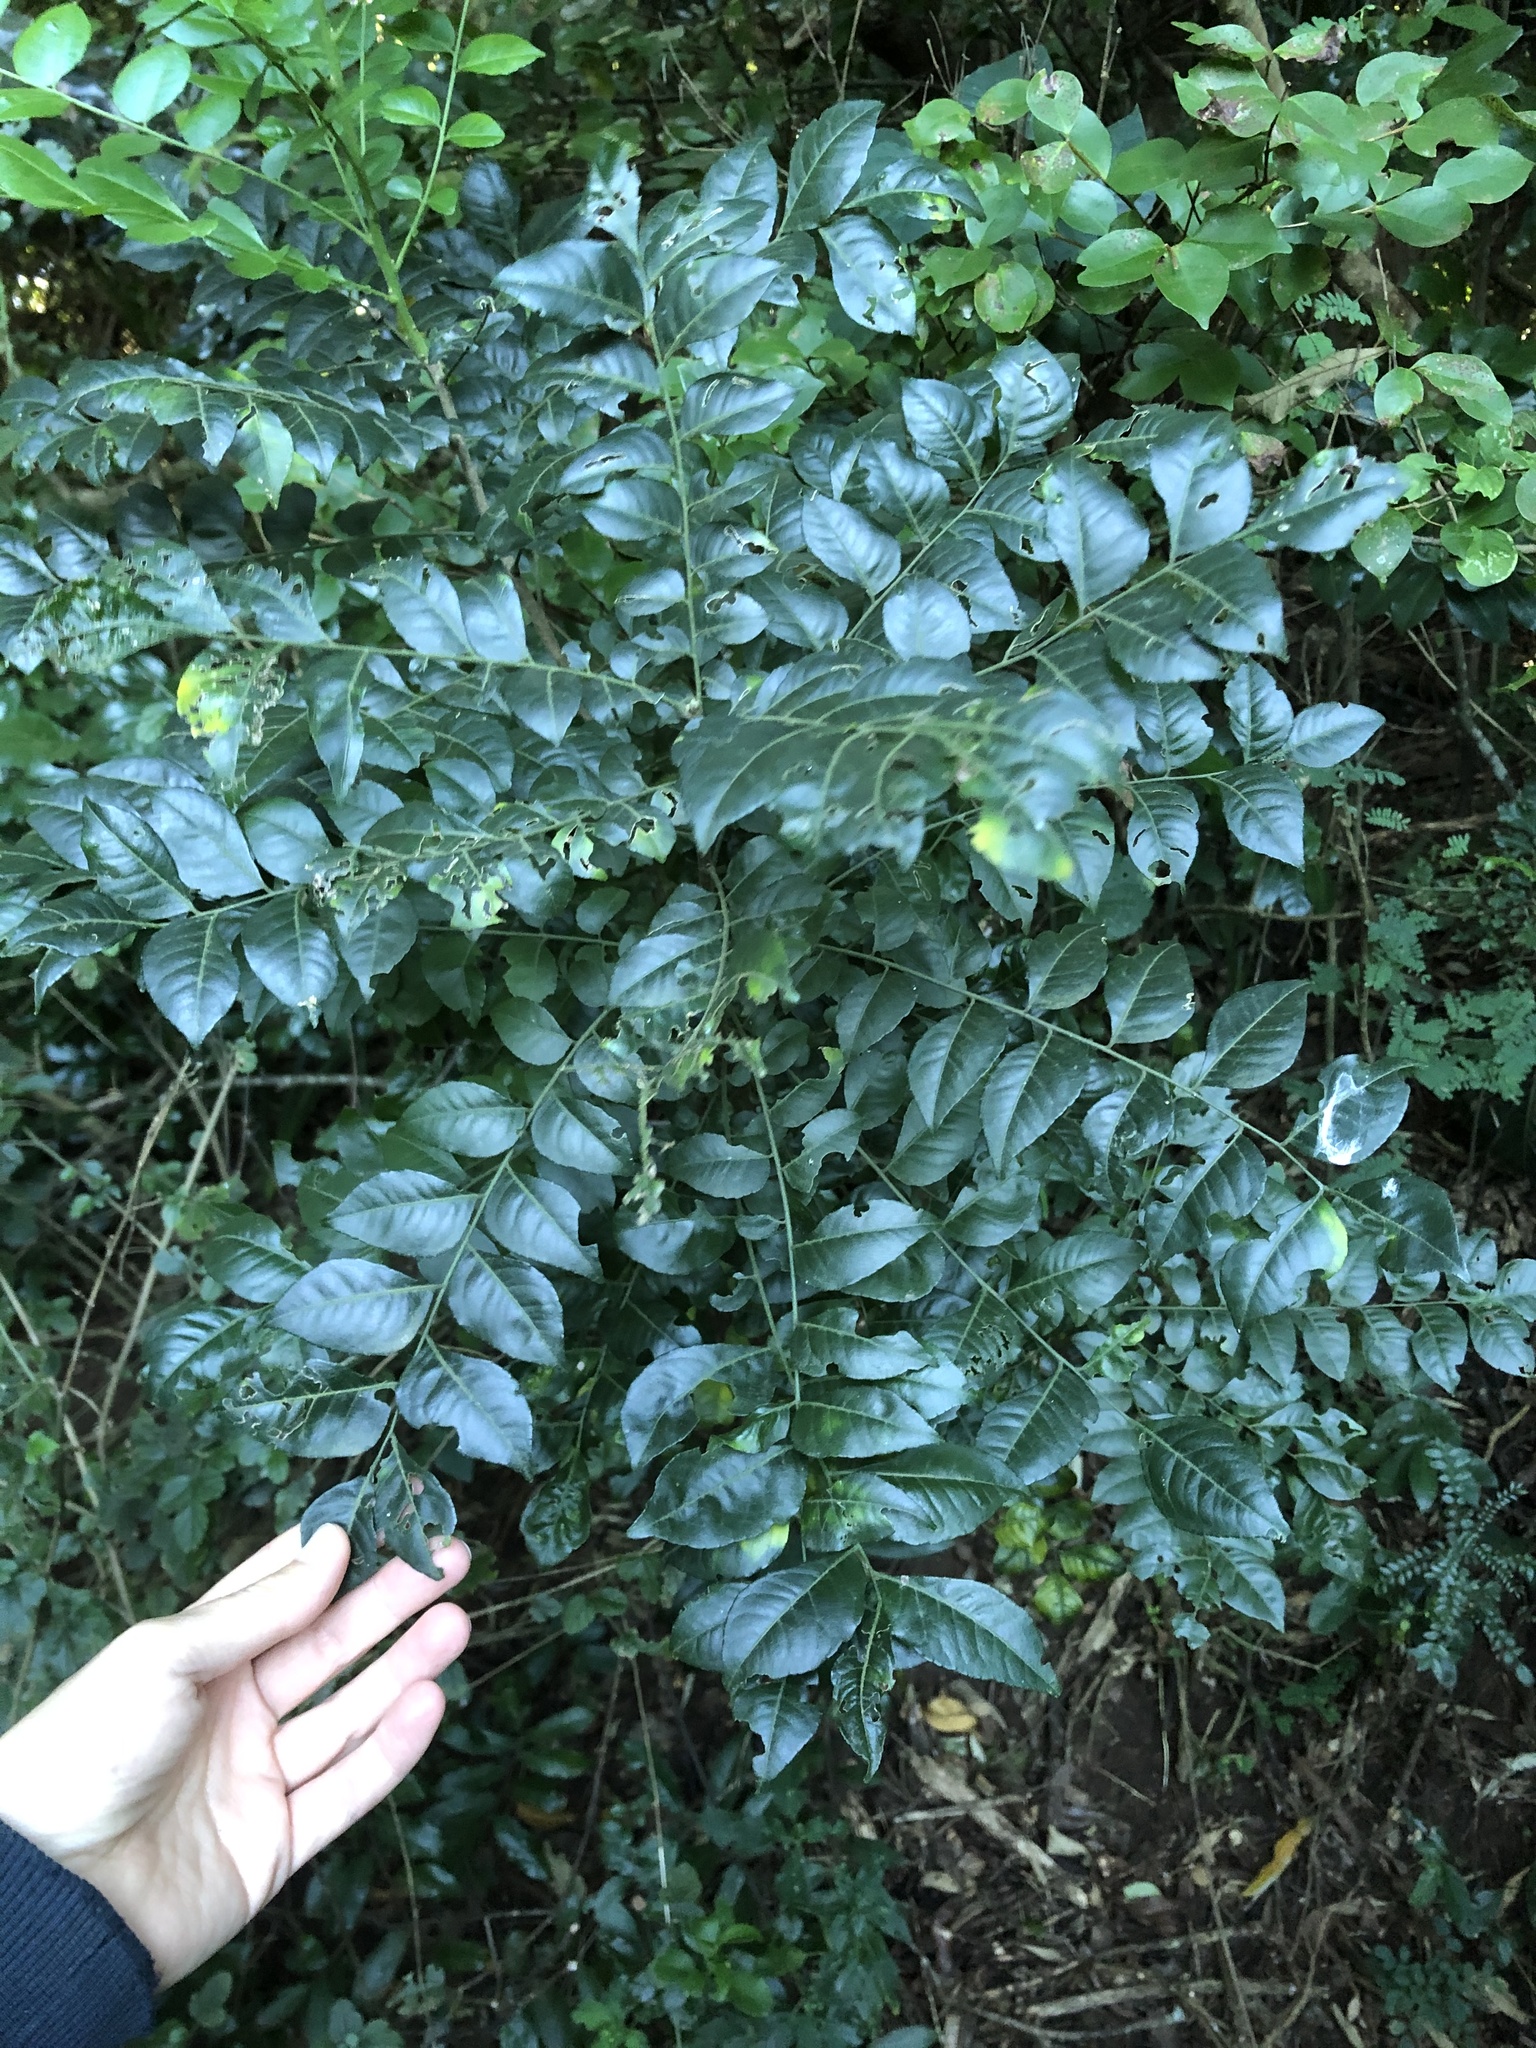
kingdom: Plantae
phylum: Tracheophyta
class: Magnoliopsida
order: Sapindales
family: Rutaceae
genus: Clausena
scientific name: Clausena anisata
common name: Horsewood
